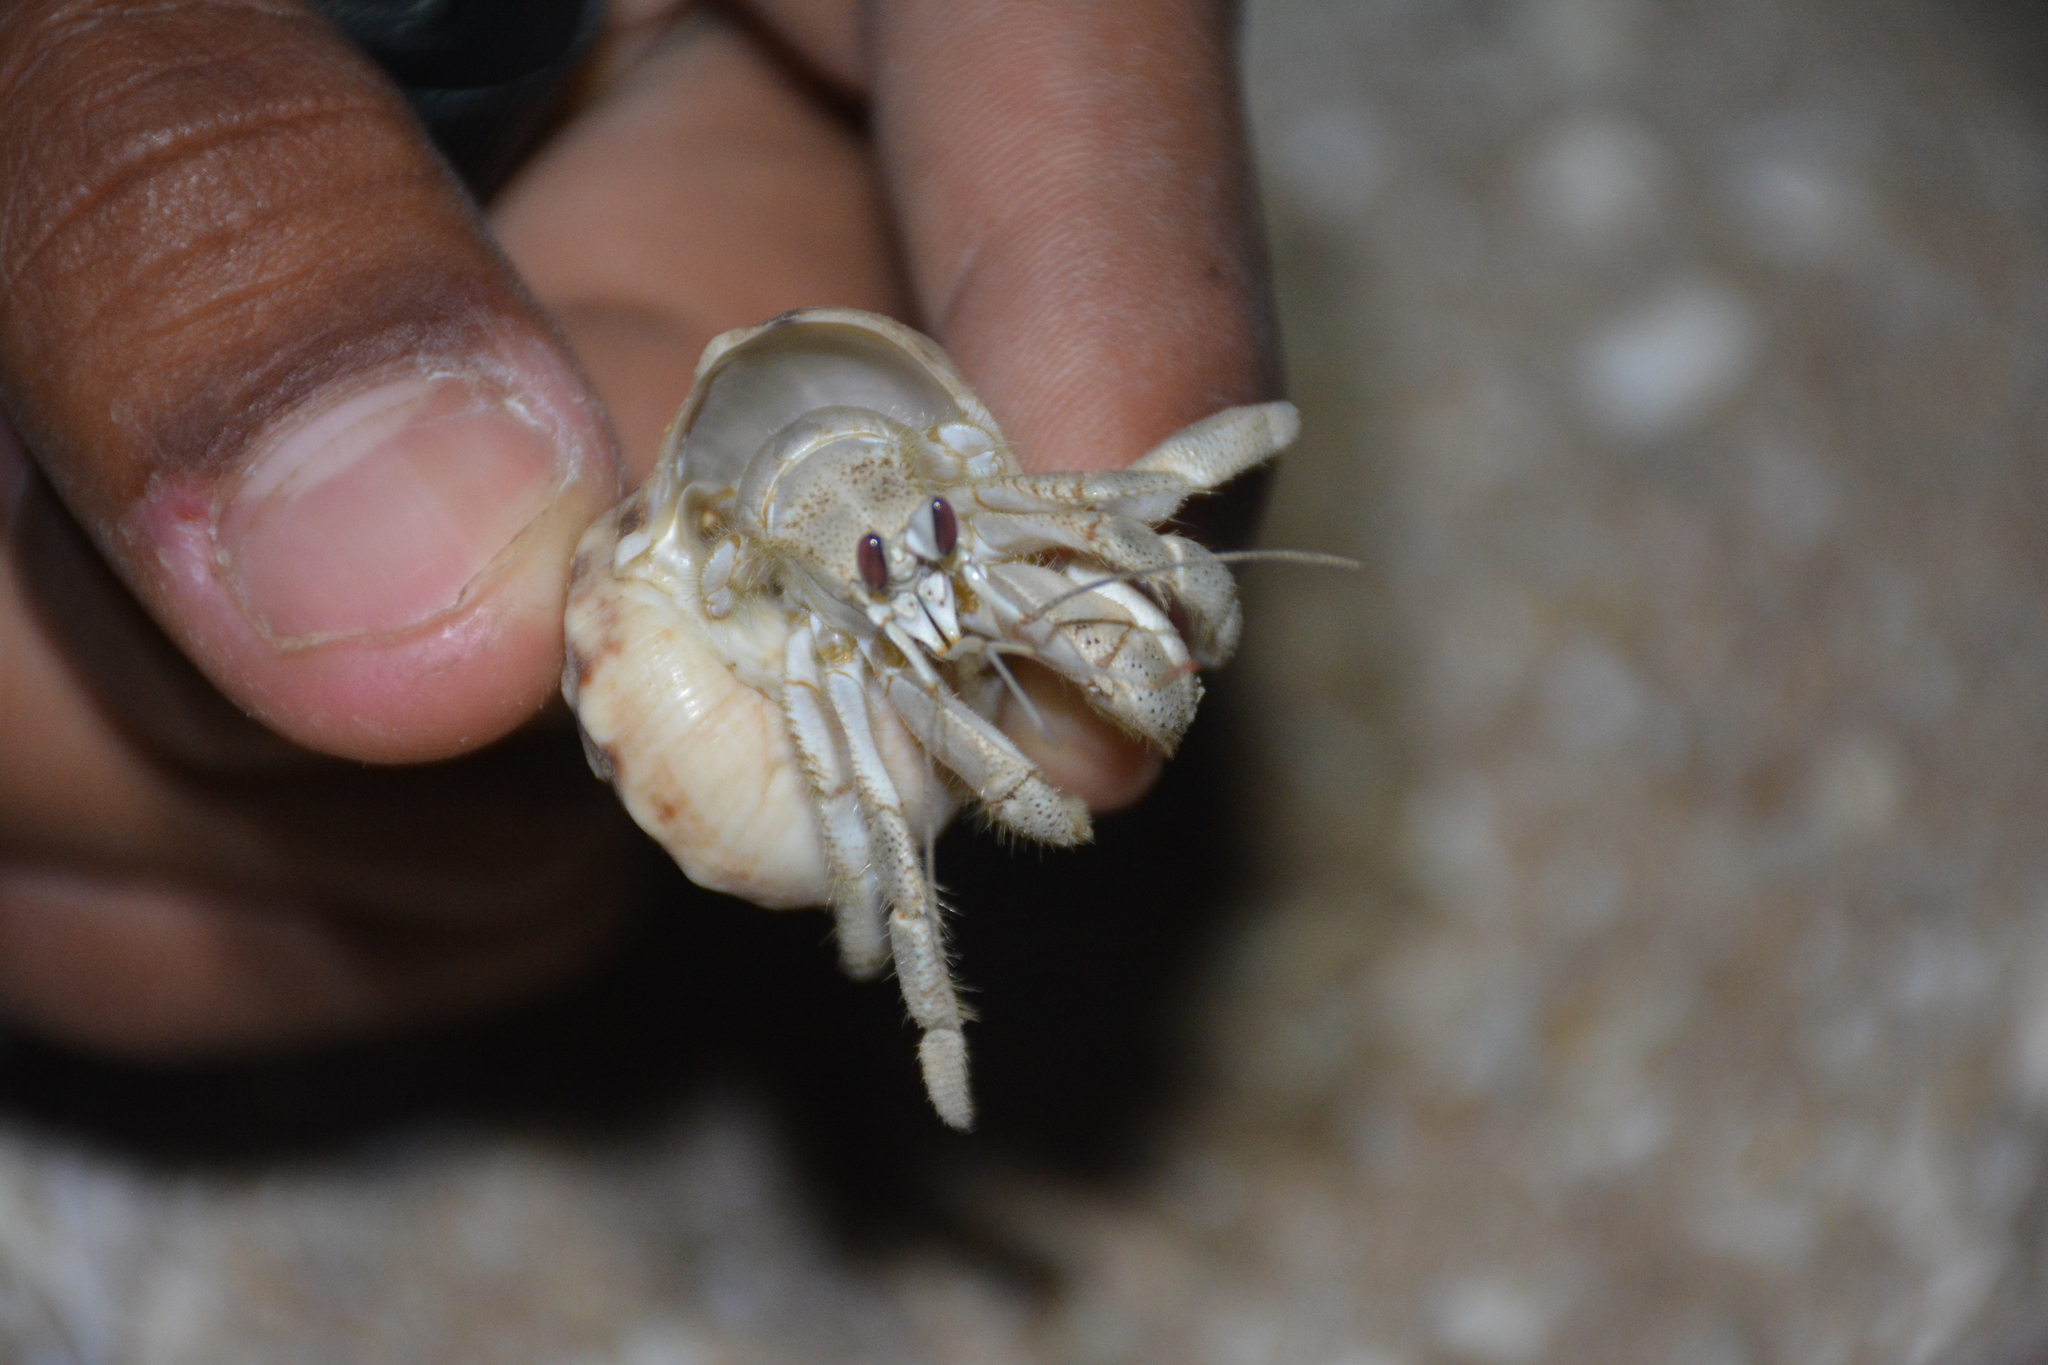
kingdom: Animalia
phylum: Arthropoda
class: Malacostraca
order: Decapoda
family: Coenobitidae
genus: Coenobita
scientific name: Coenobita scaevola
